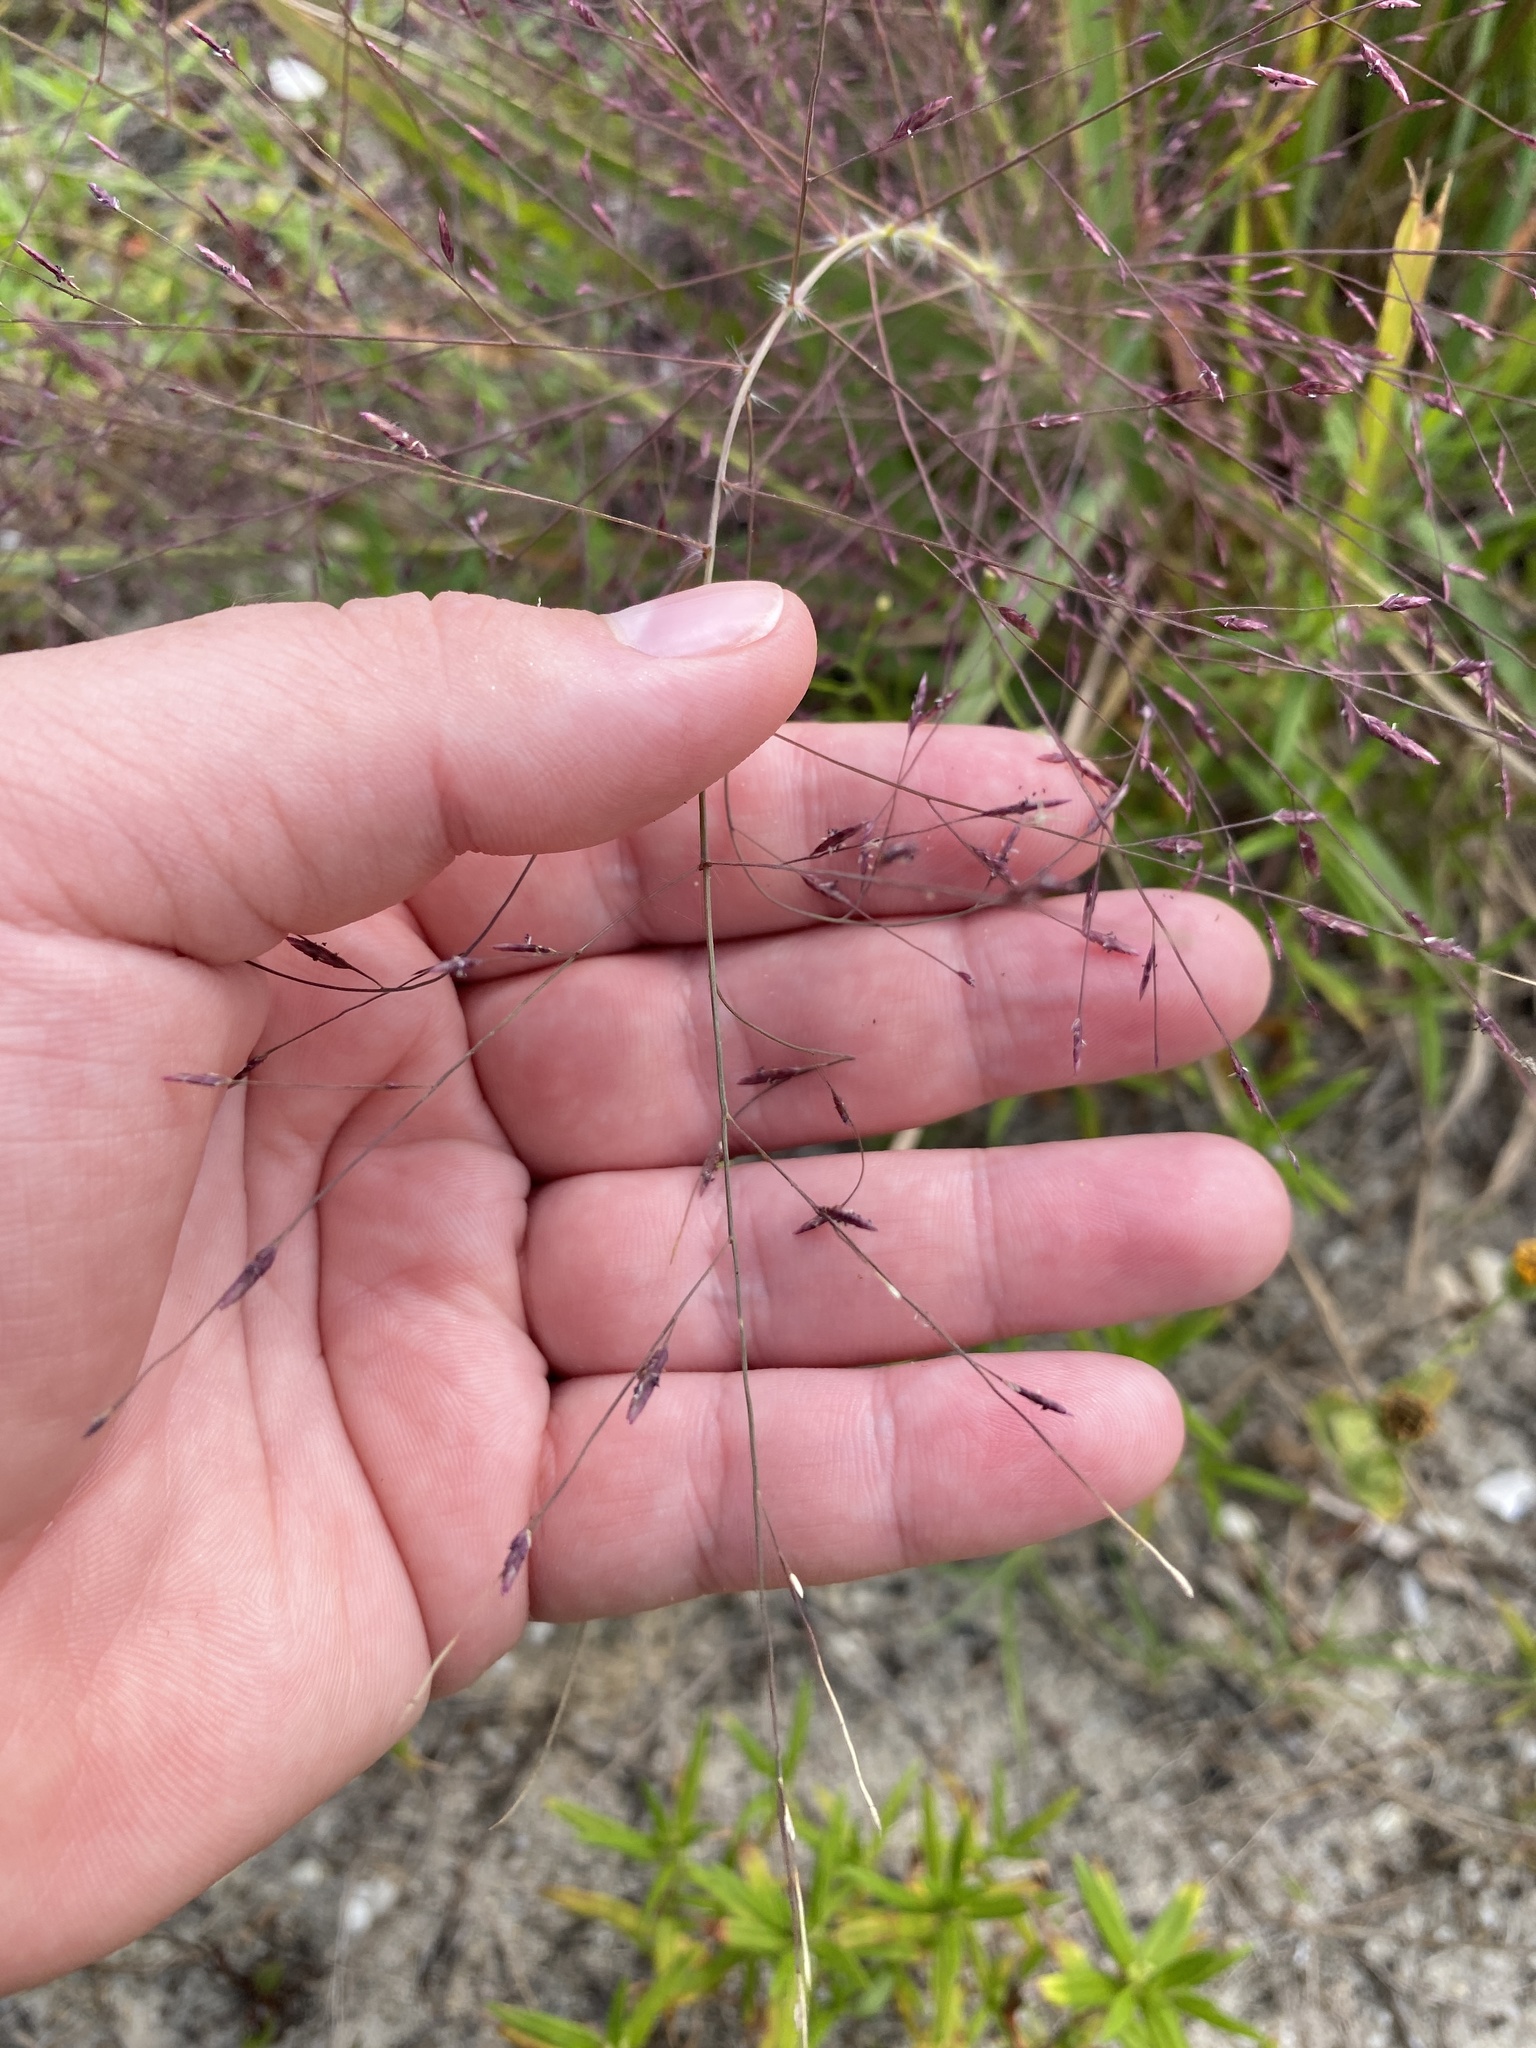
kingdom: Plantae
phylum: Tracheophyta
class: Liliopsida
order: Poales
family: Poaceae
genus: Eragrostis
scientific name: Eragrostis spectabilis
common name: Petticoat-climber
